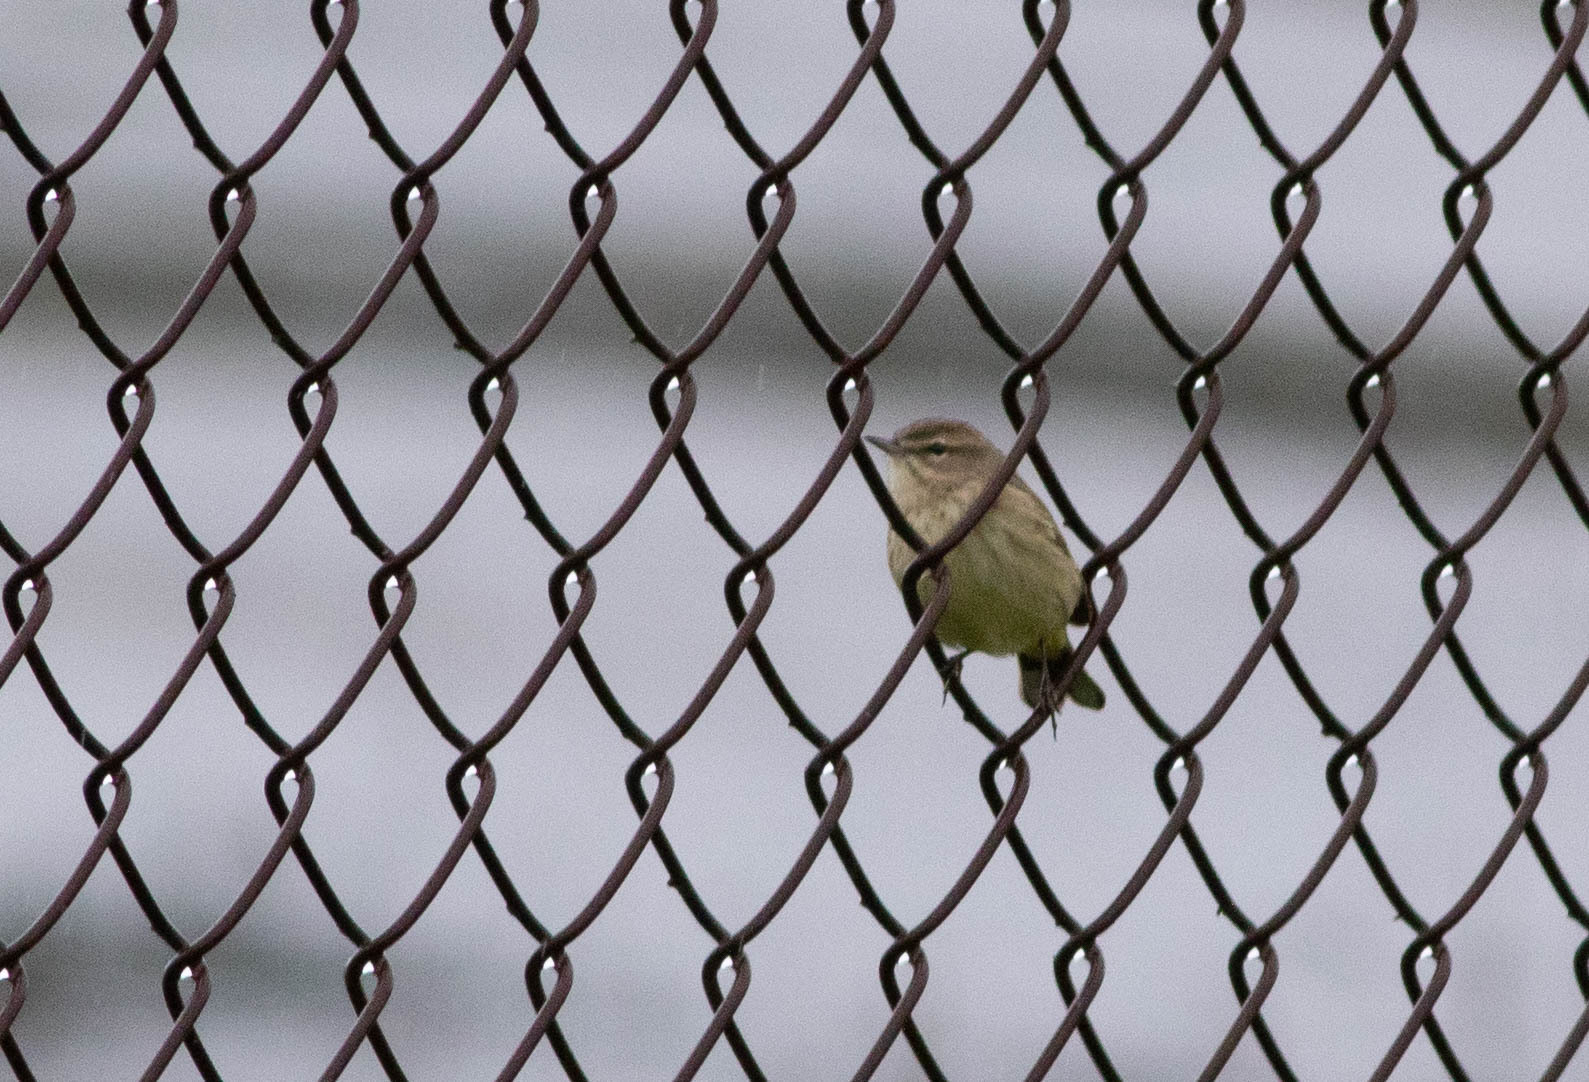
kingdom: Animalia
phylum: Chordata
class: Aves
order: Passeriformes
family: Parulidae
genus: Setophaga
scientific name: Setophaga palmarum
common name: Palm warbler
